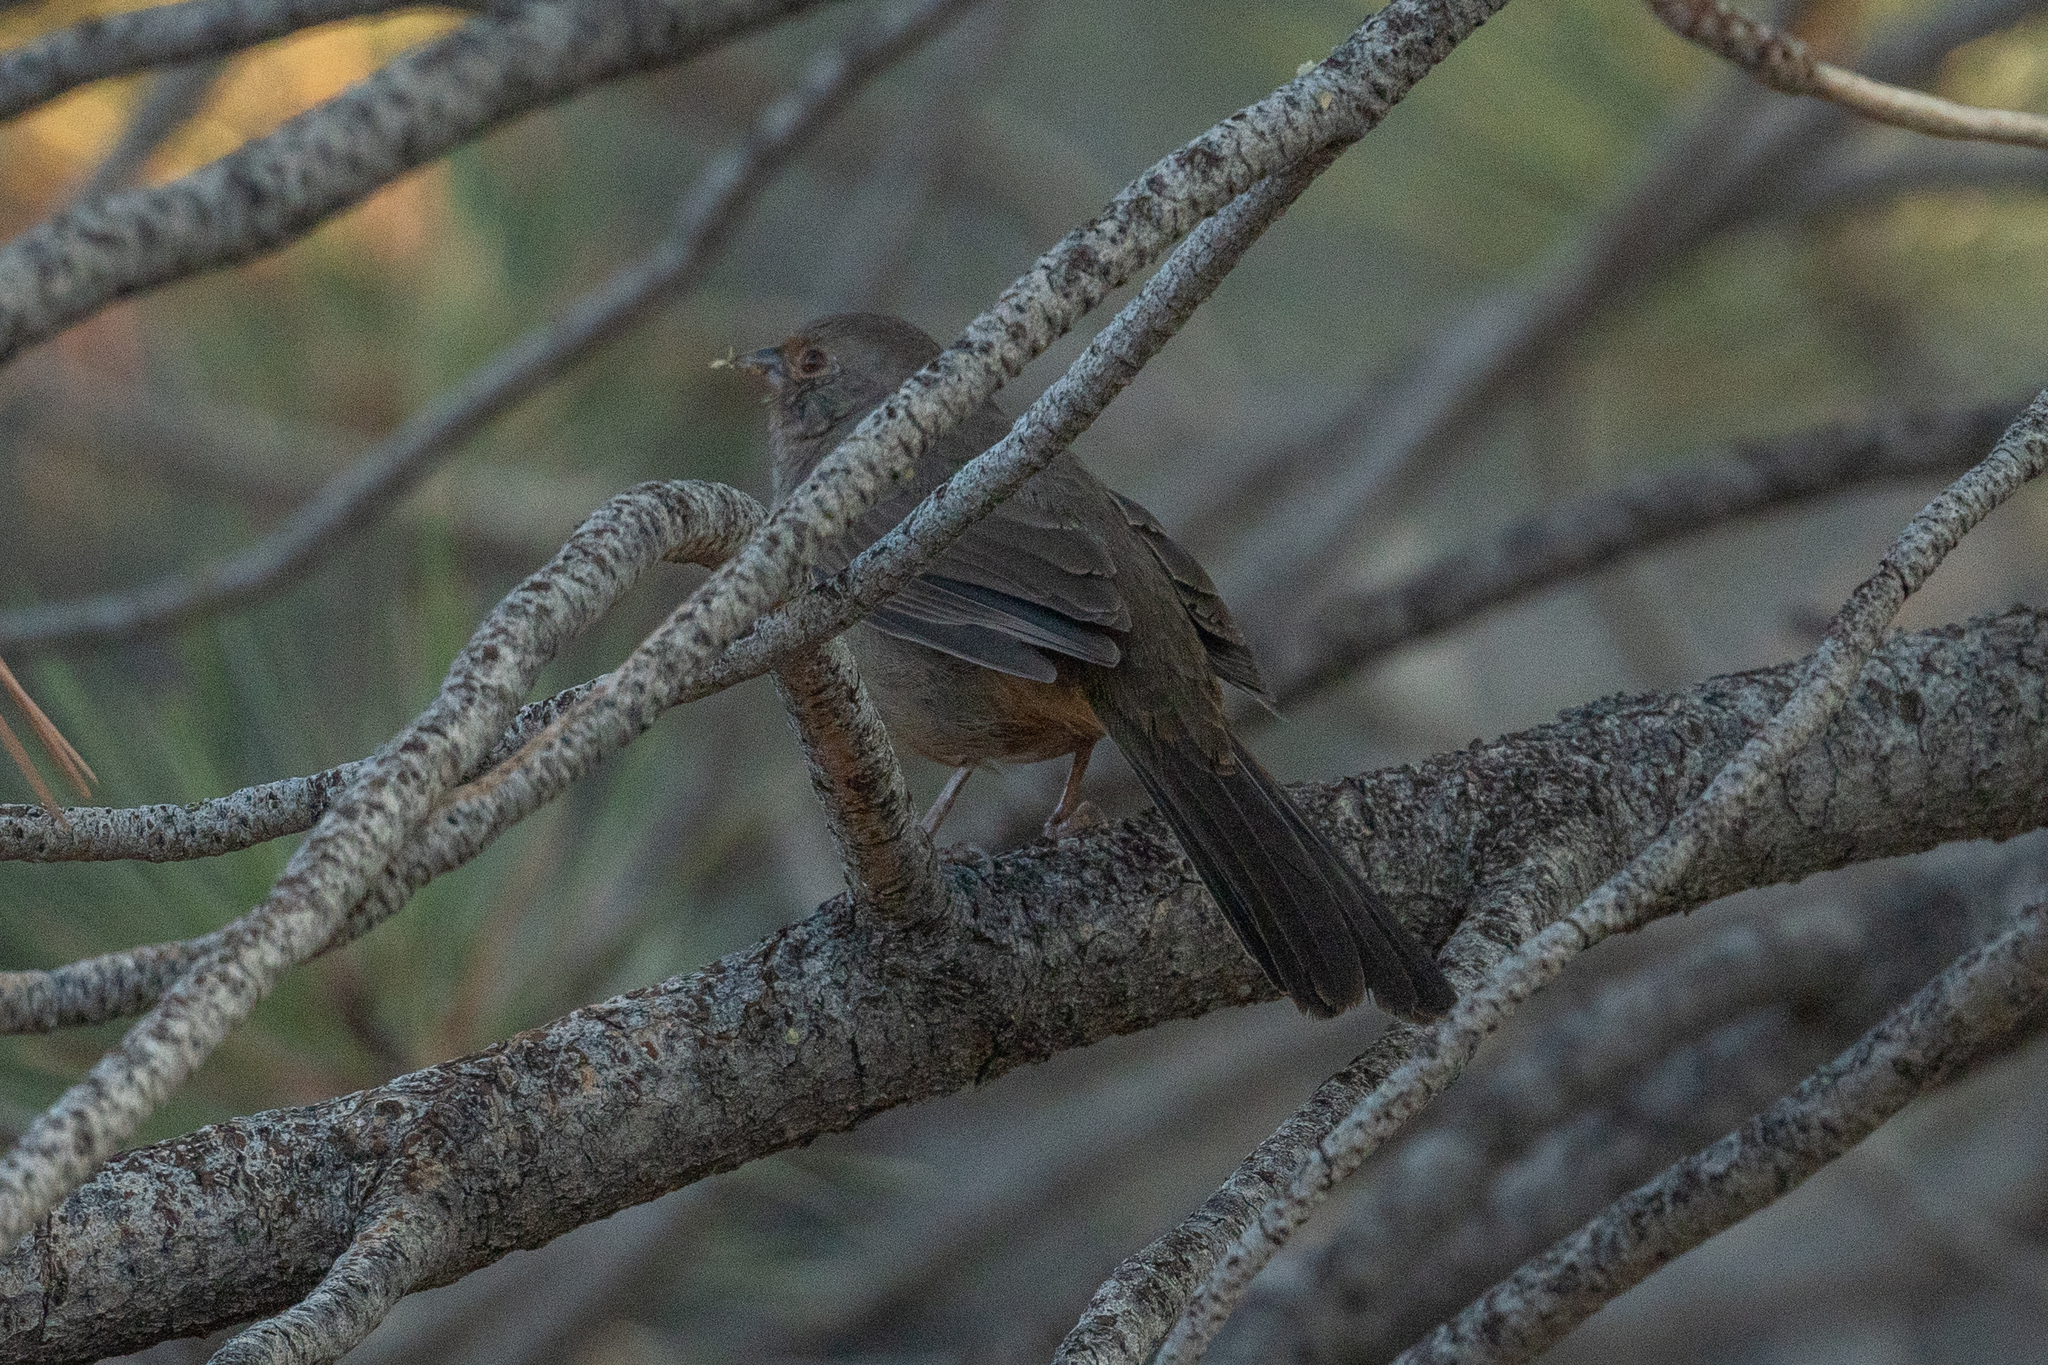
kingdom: Animalia
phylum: Chordata
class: Aves
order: Passeriformes
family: Passerellidae
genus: Melozone
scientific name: Melozone crissalis
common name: California towhee
